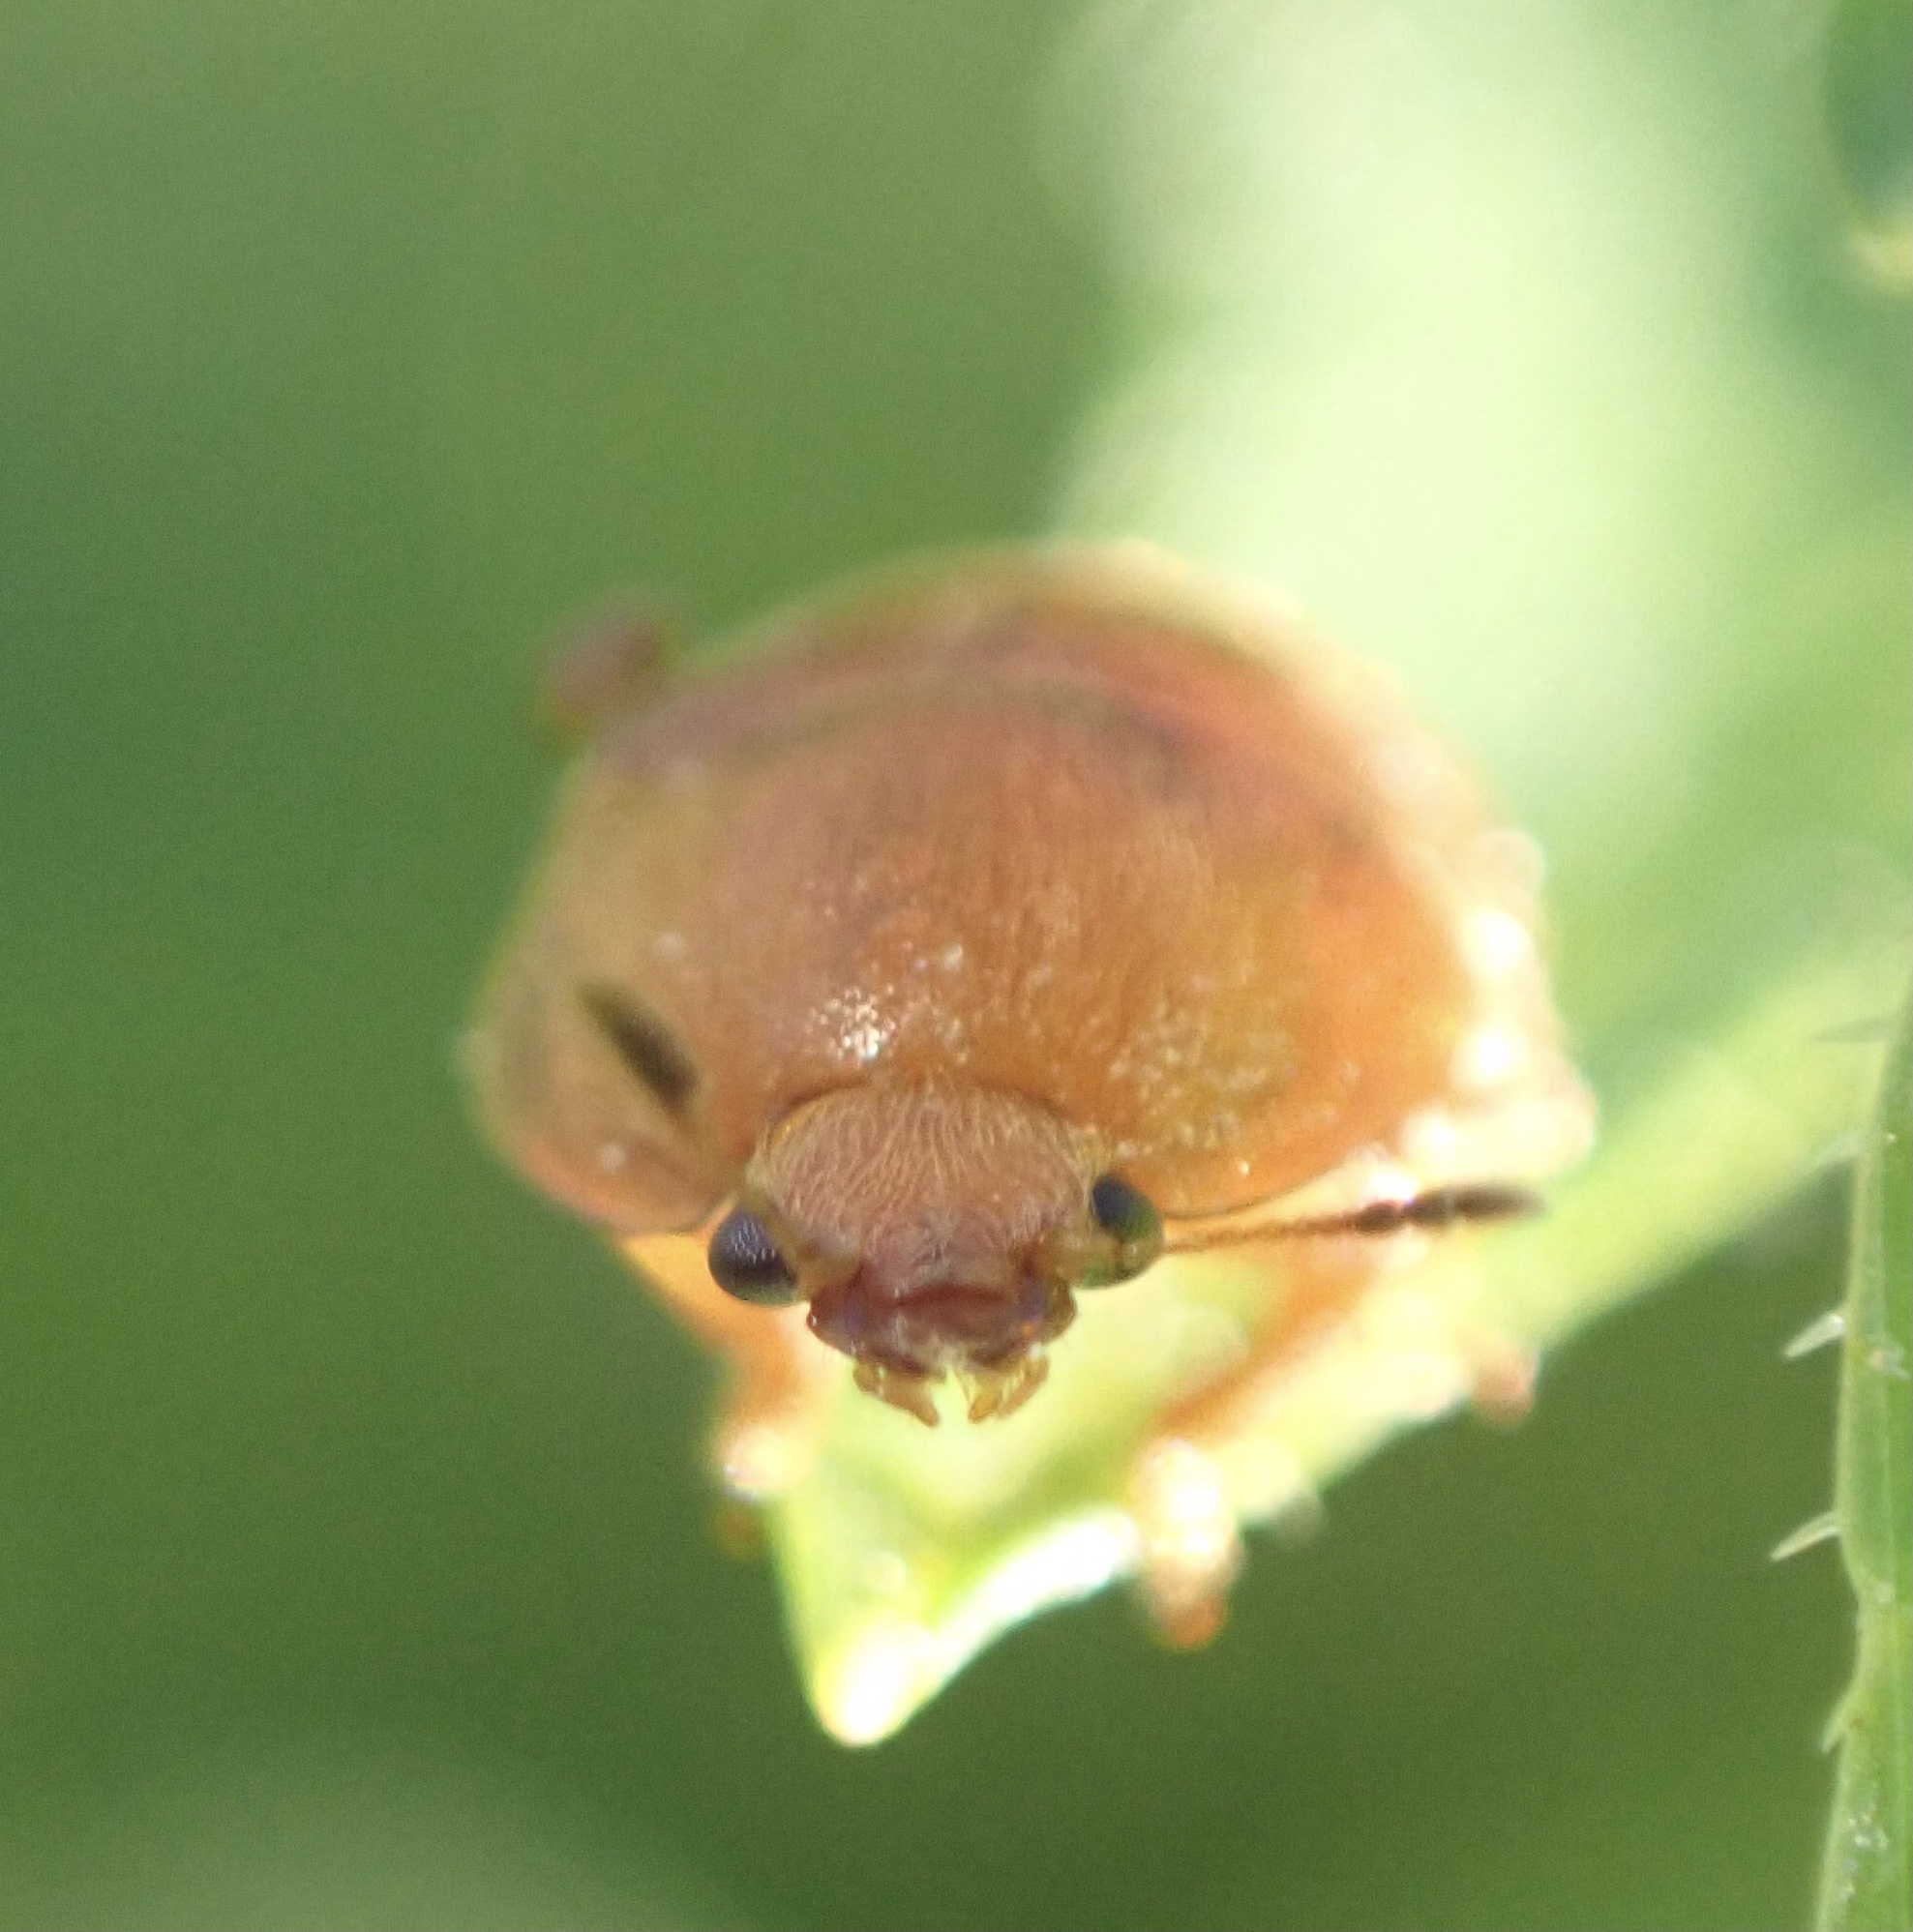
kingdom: Animalia
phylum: Arthropoda
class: Insecta
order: Coleoptera
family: Nitidulidae
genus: Cychramus
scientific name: Cychramus luteus
